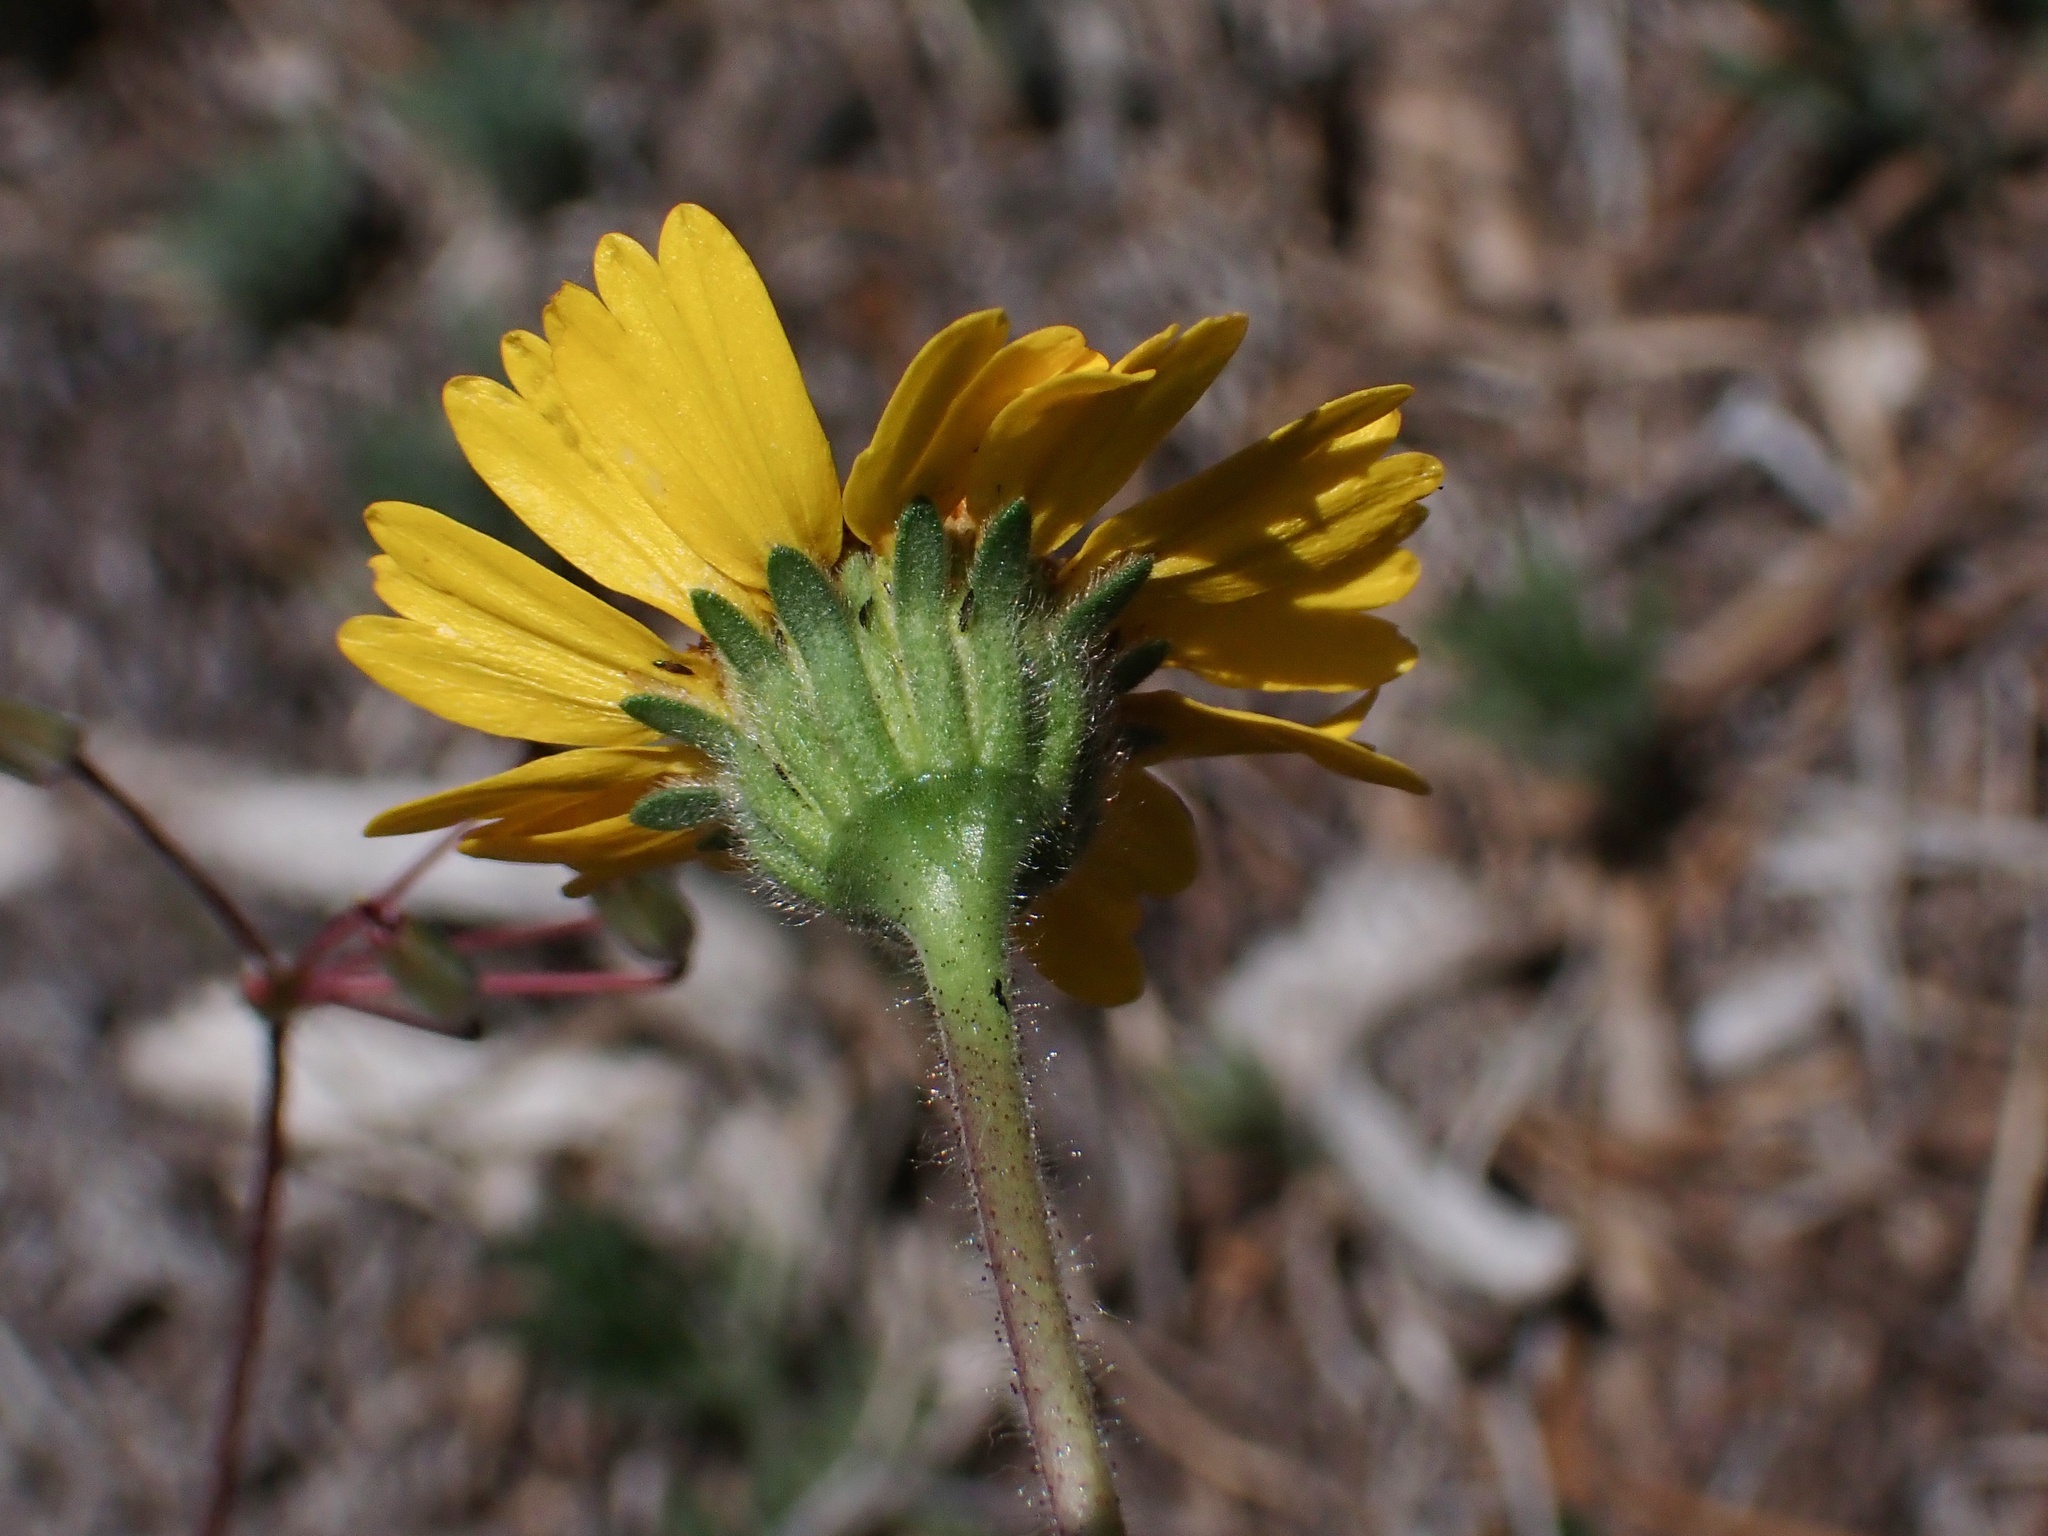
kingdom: Plantae
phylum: Tracheophyta
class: Magnoliopsida
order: Asterales
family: Asteraceae
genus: Layia
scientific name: Layia platyglossa
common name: Tidy-tips
